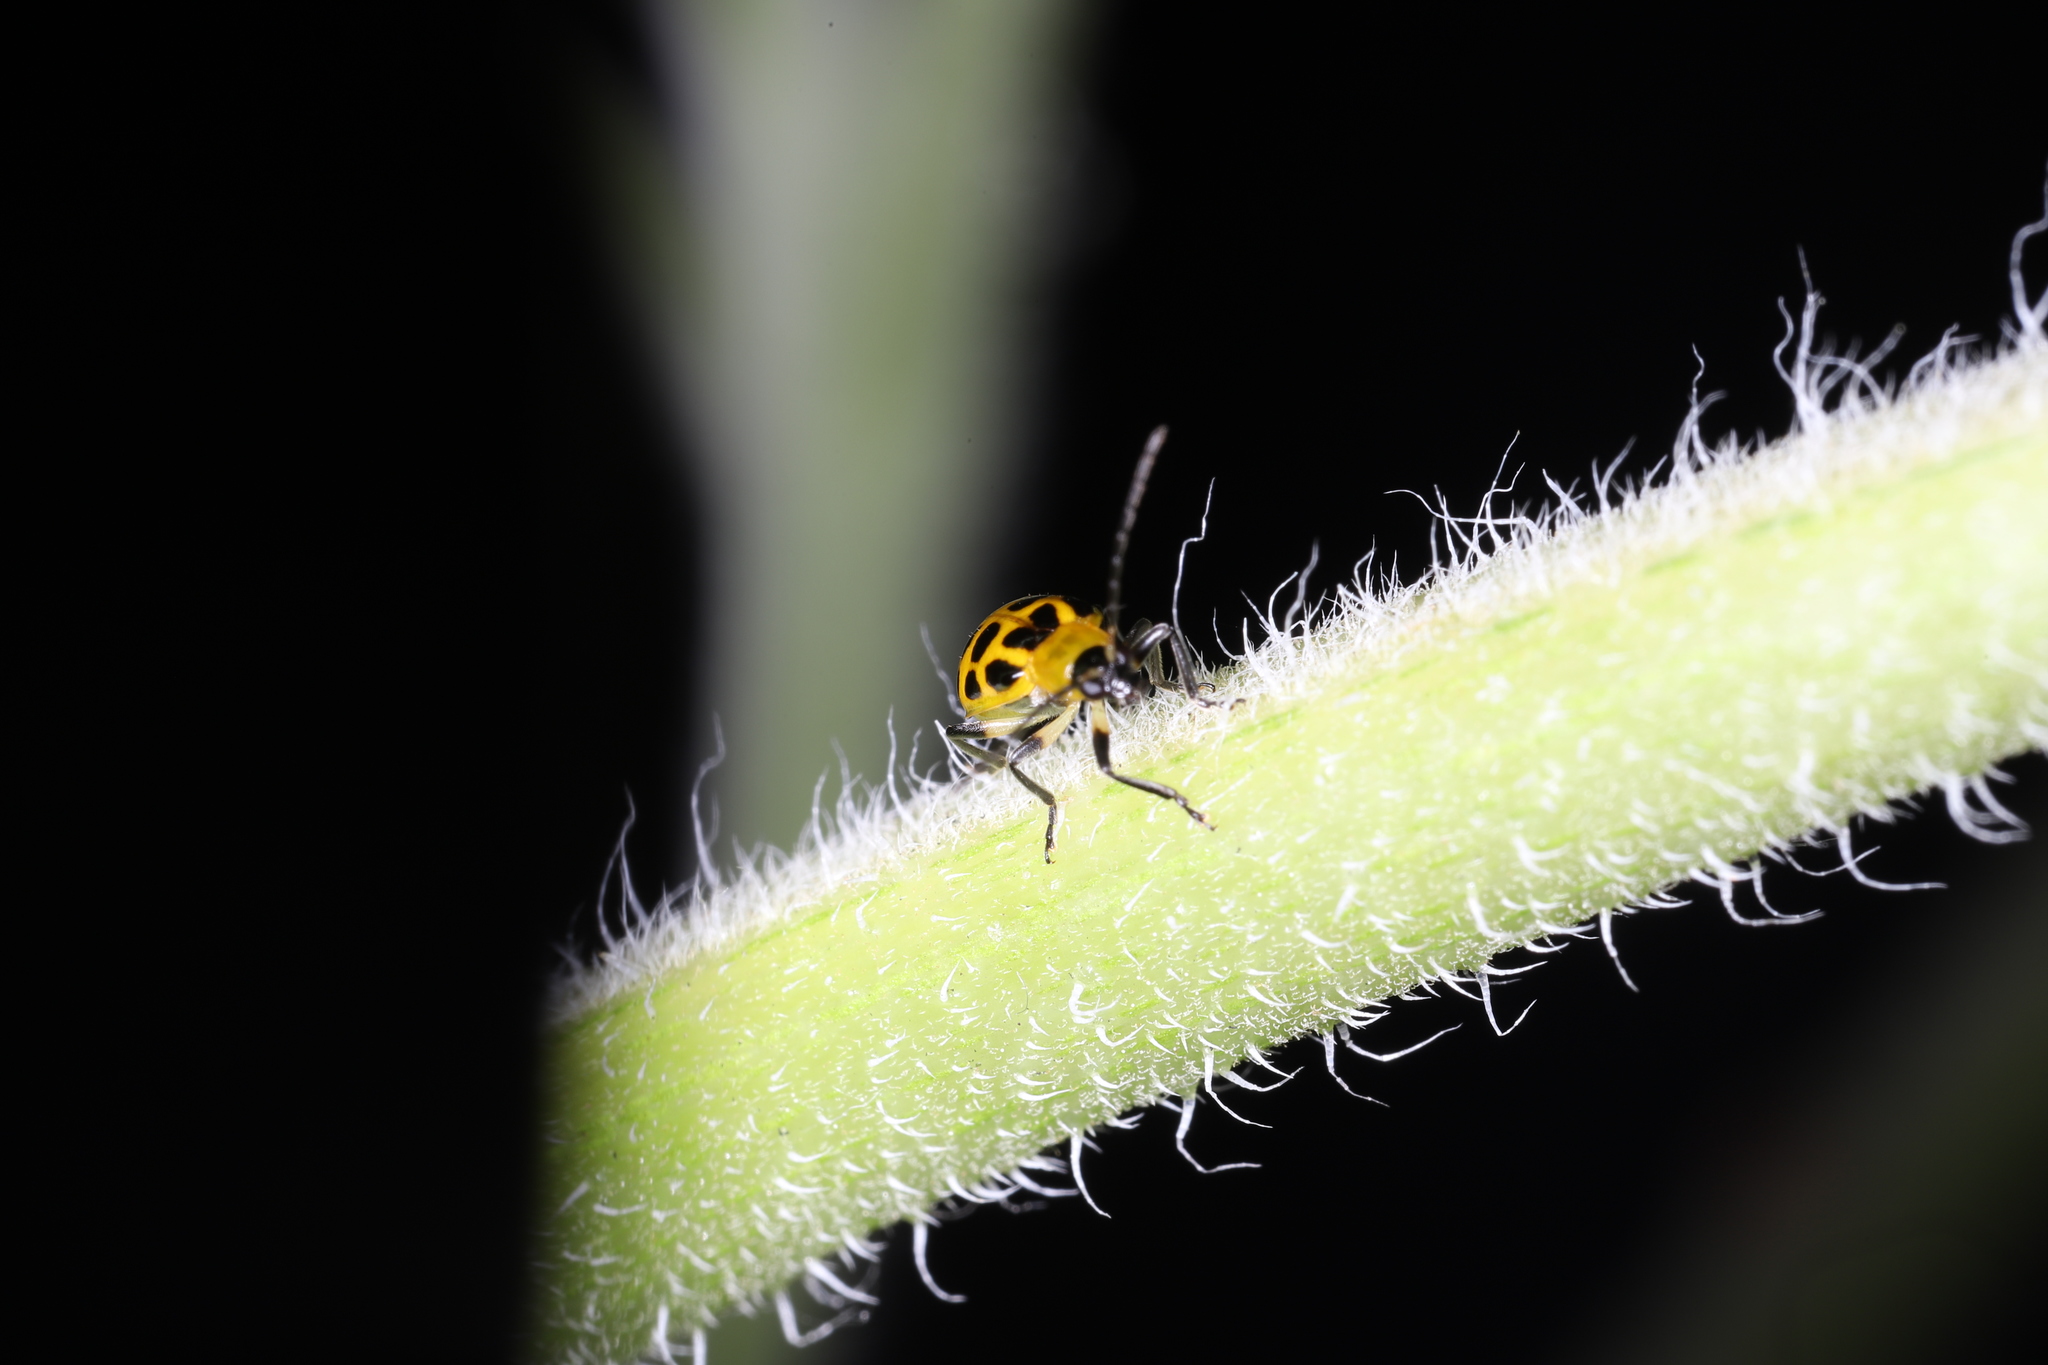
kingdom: Animalia
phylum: Arthropoda
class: Insecta
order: Coleoptera
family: Chrysomelidae
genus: Diabrotica
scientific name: Diabrotica undecimpunctata
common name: Spotted cucumber beetle
